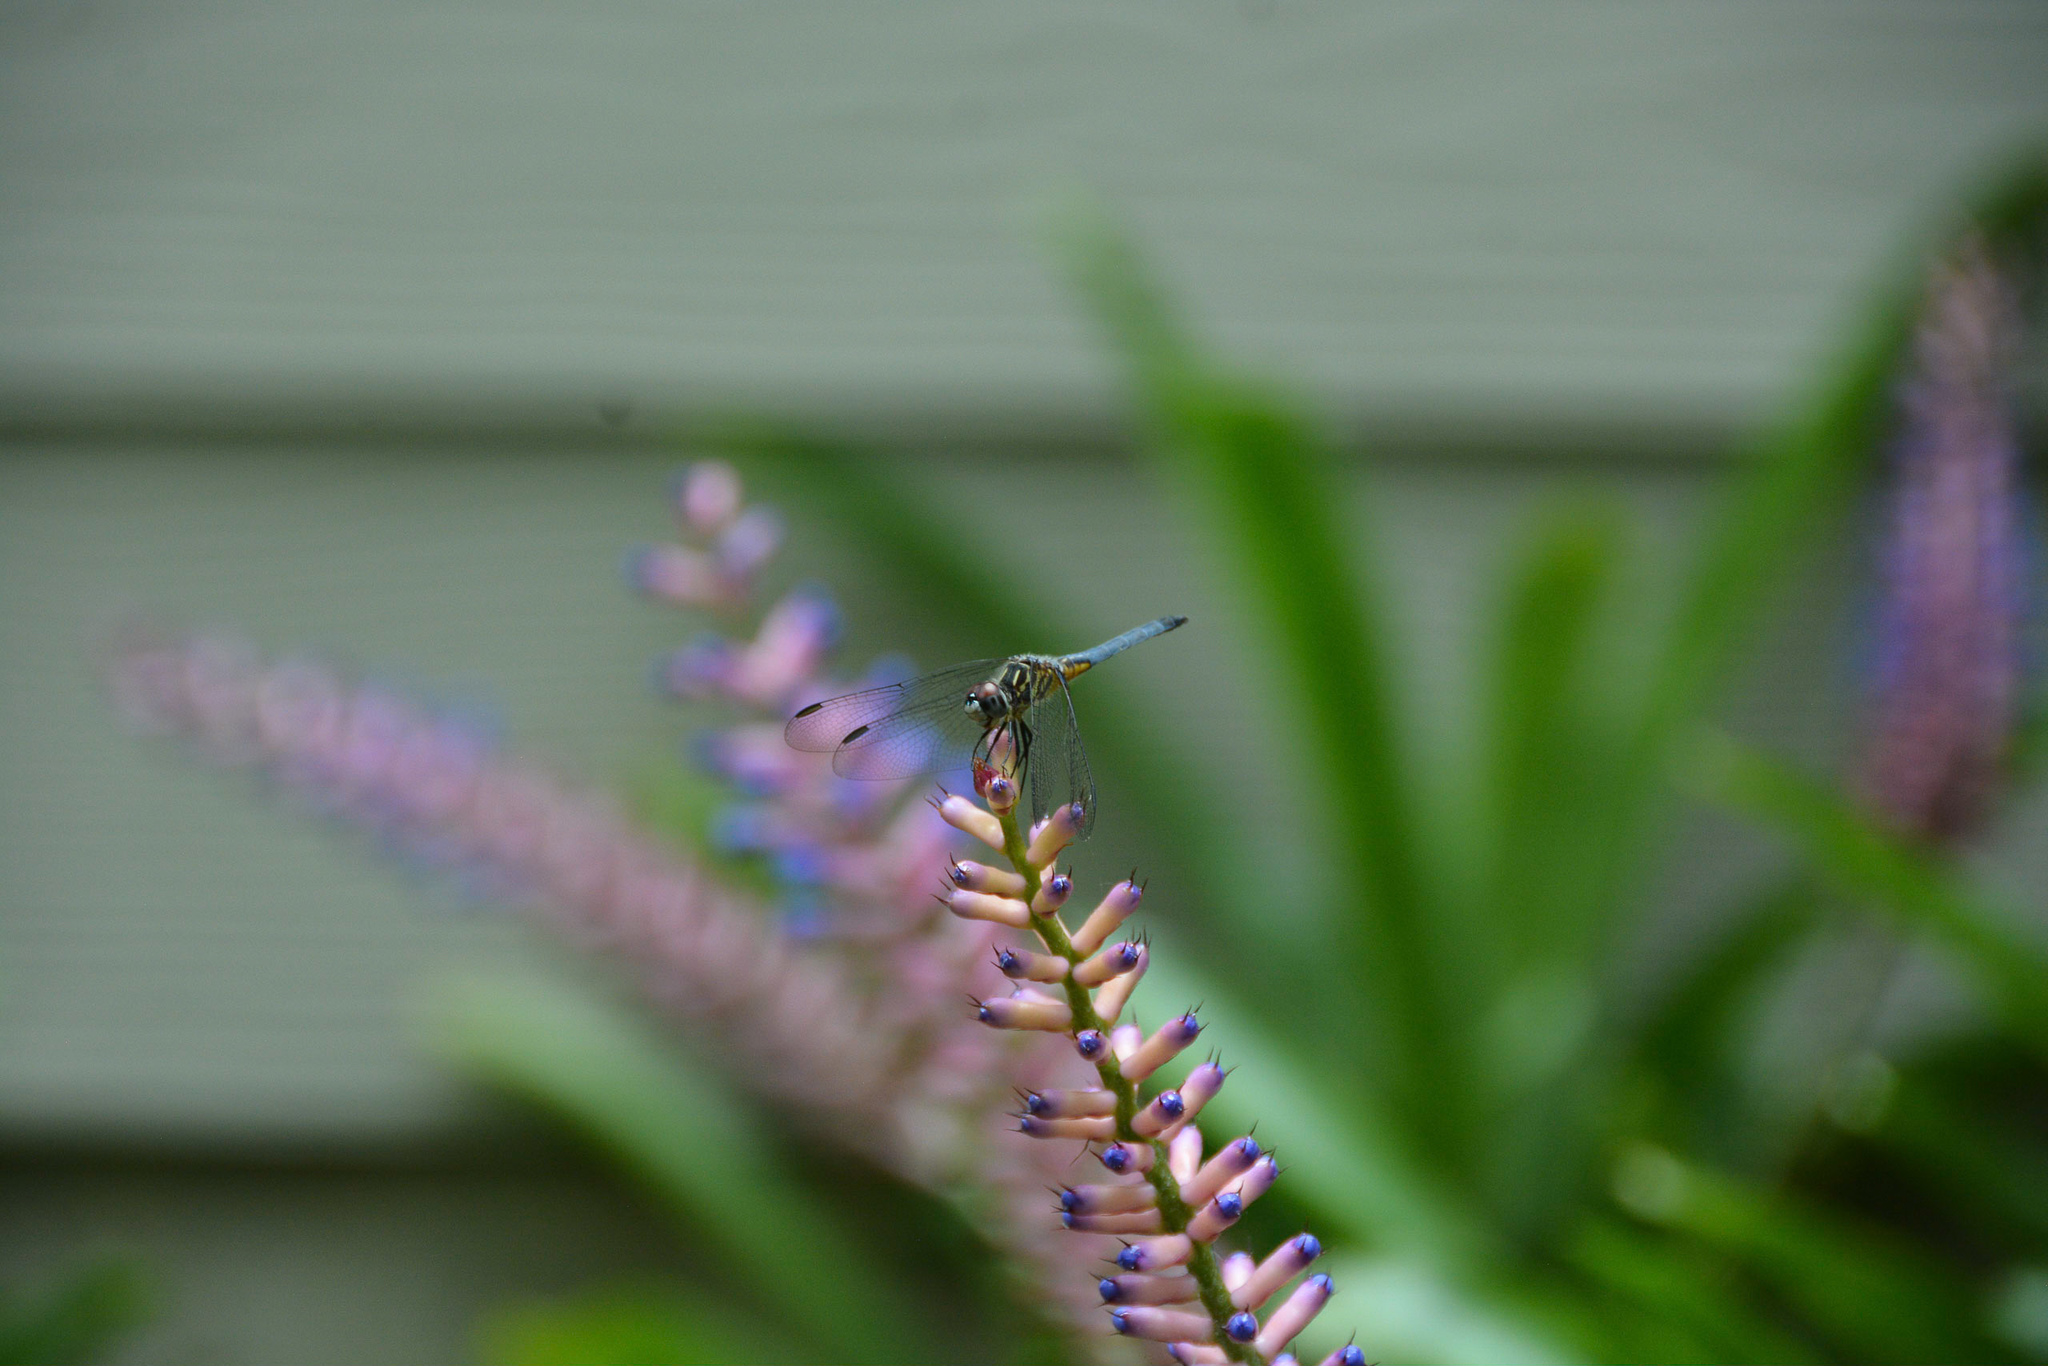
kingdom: Animalia
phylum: Arthropoda
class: Insecta
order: Odonata
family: Libellulidae
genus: Pachydiplax
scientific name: Pachydiplax longipennis
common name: Blue dasher
